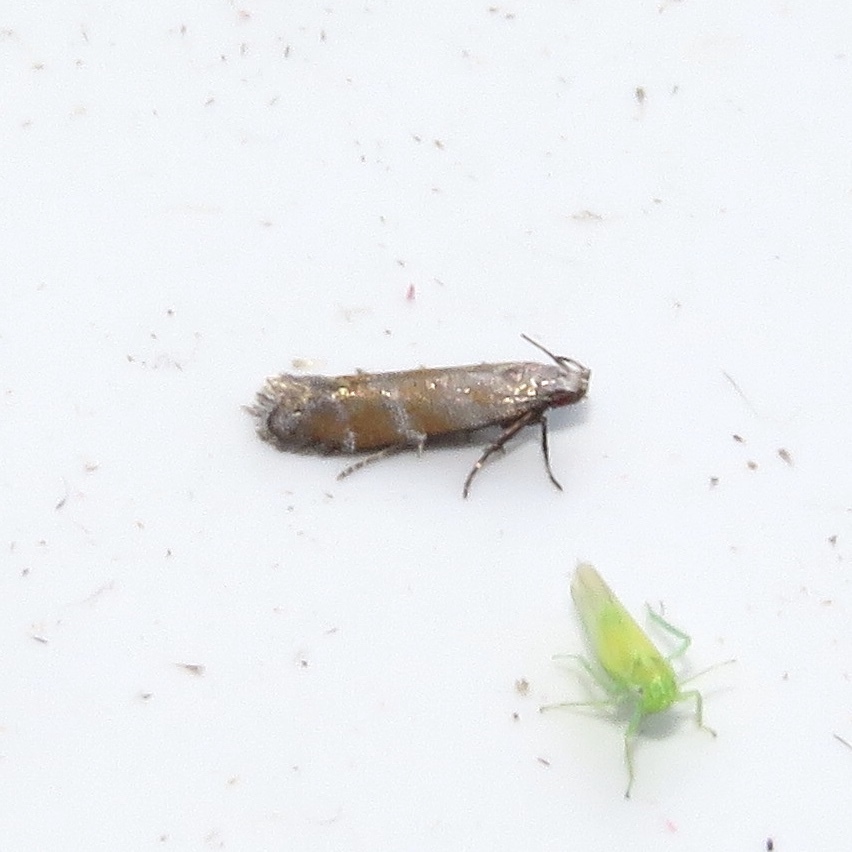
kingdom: Animalia
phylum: Arthropoda
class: Insecta
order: Lepidoptera
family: Gelechiidae
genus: Battaristis
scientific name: Battaristis vittella
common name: Orange stripe-backed moth
